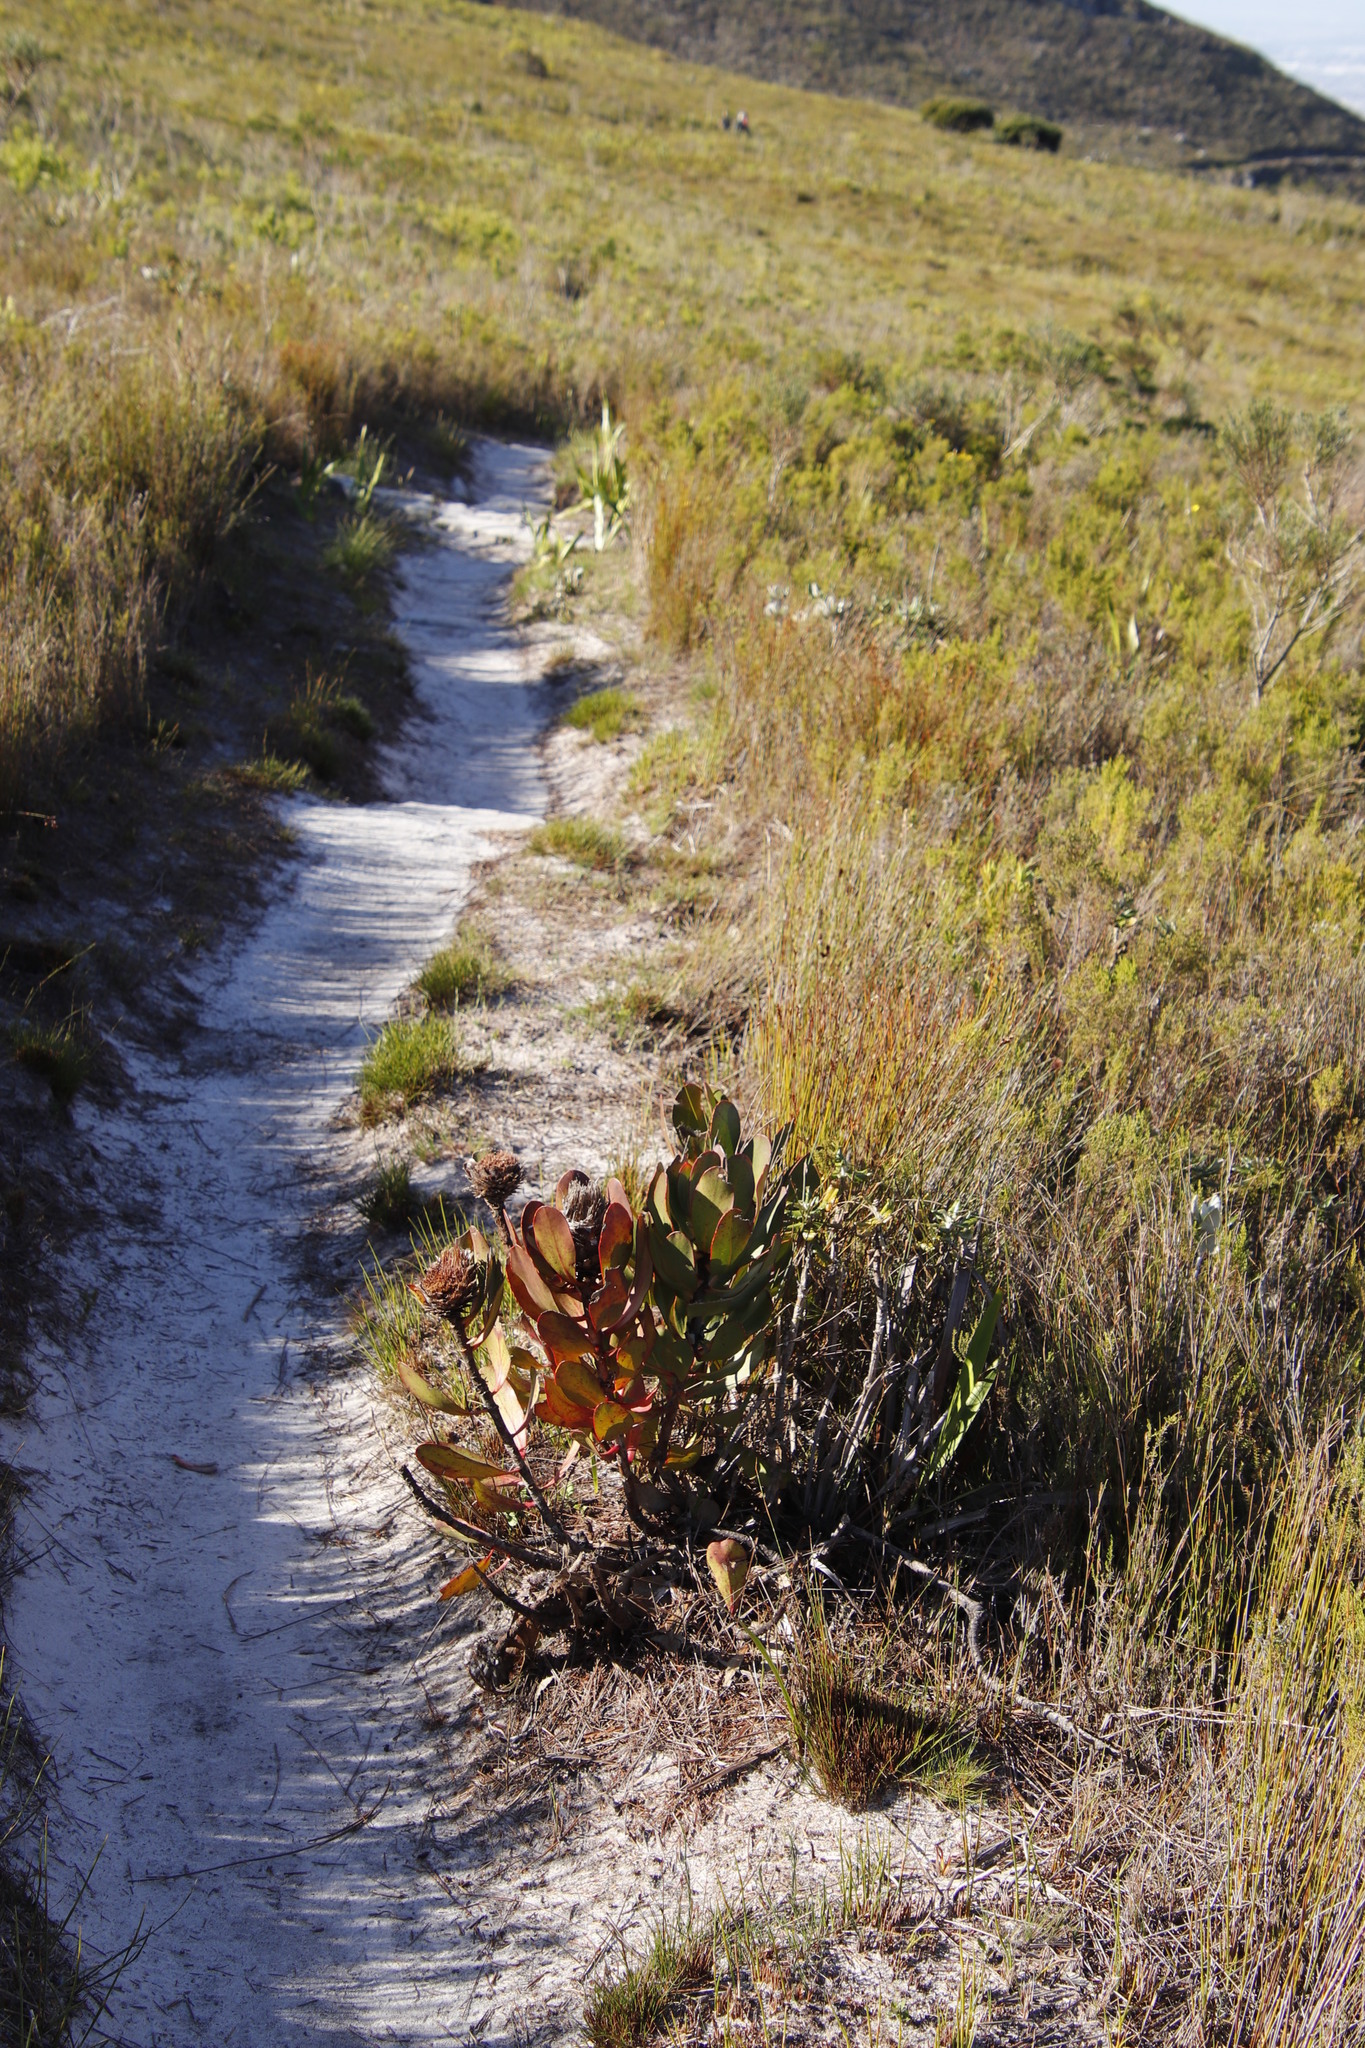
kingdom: Plantae
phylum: Tracheophyta
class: Magnoliopsida
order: Proteales
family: Proteaceae
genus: Protea
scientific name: Protea speciosa
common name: Brown-beard sugarbush
